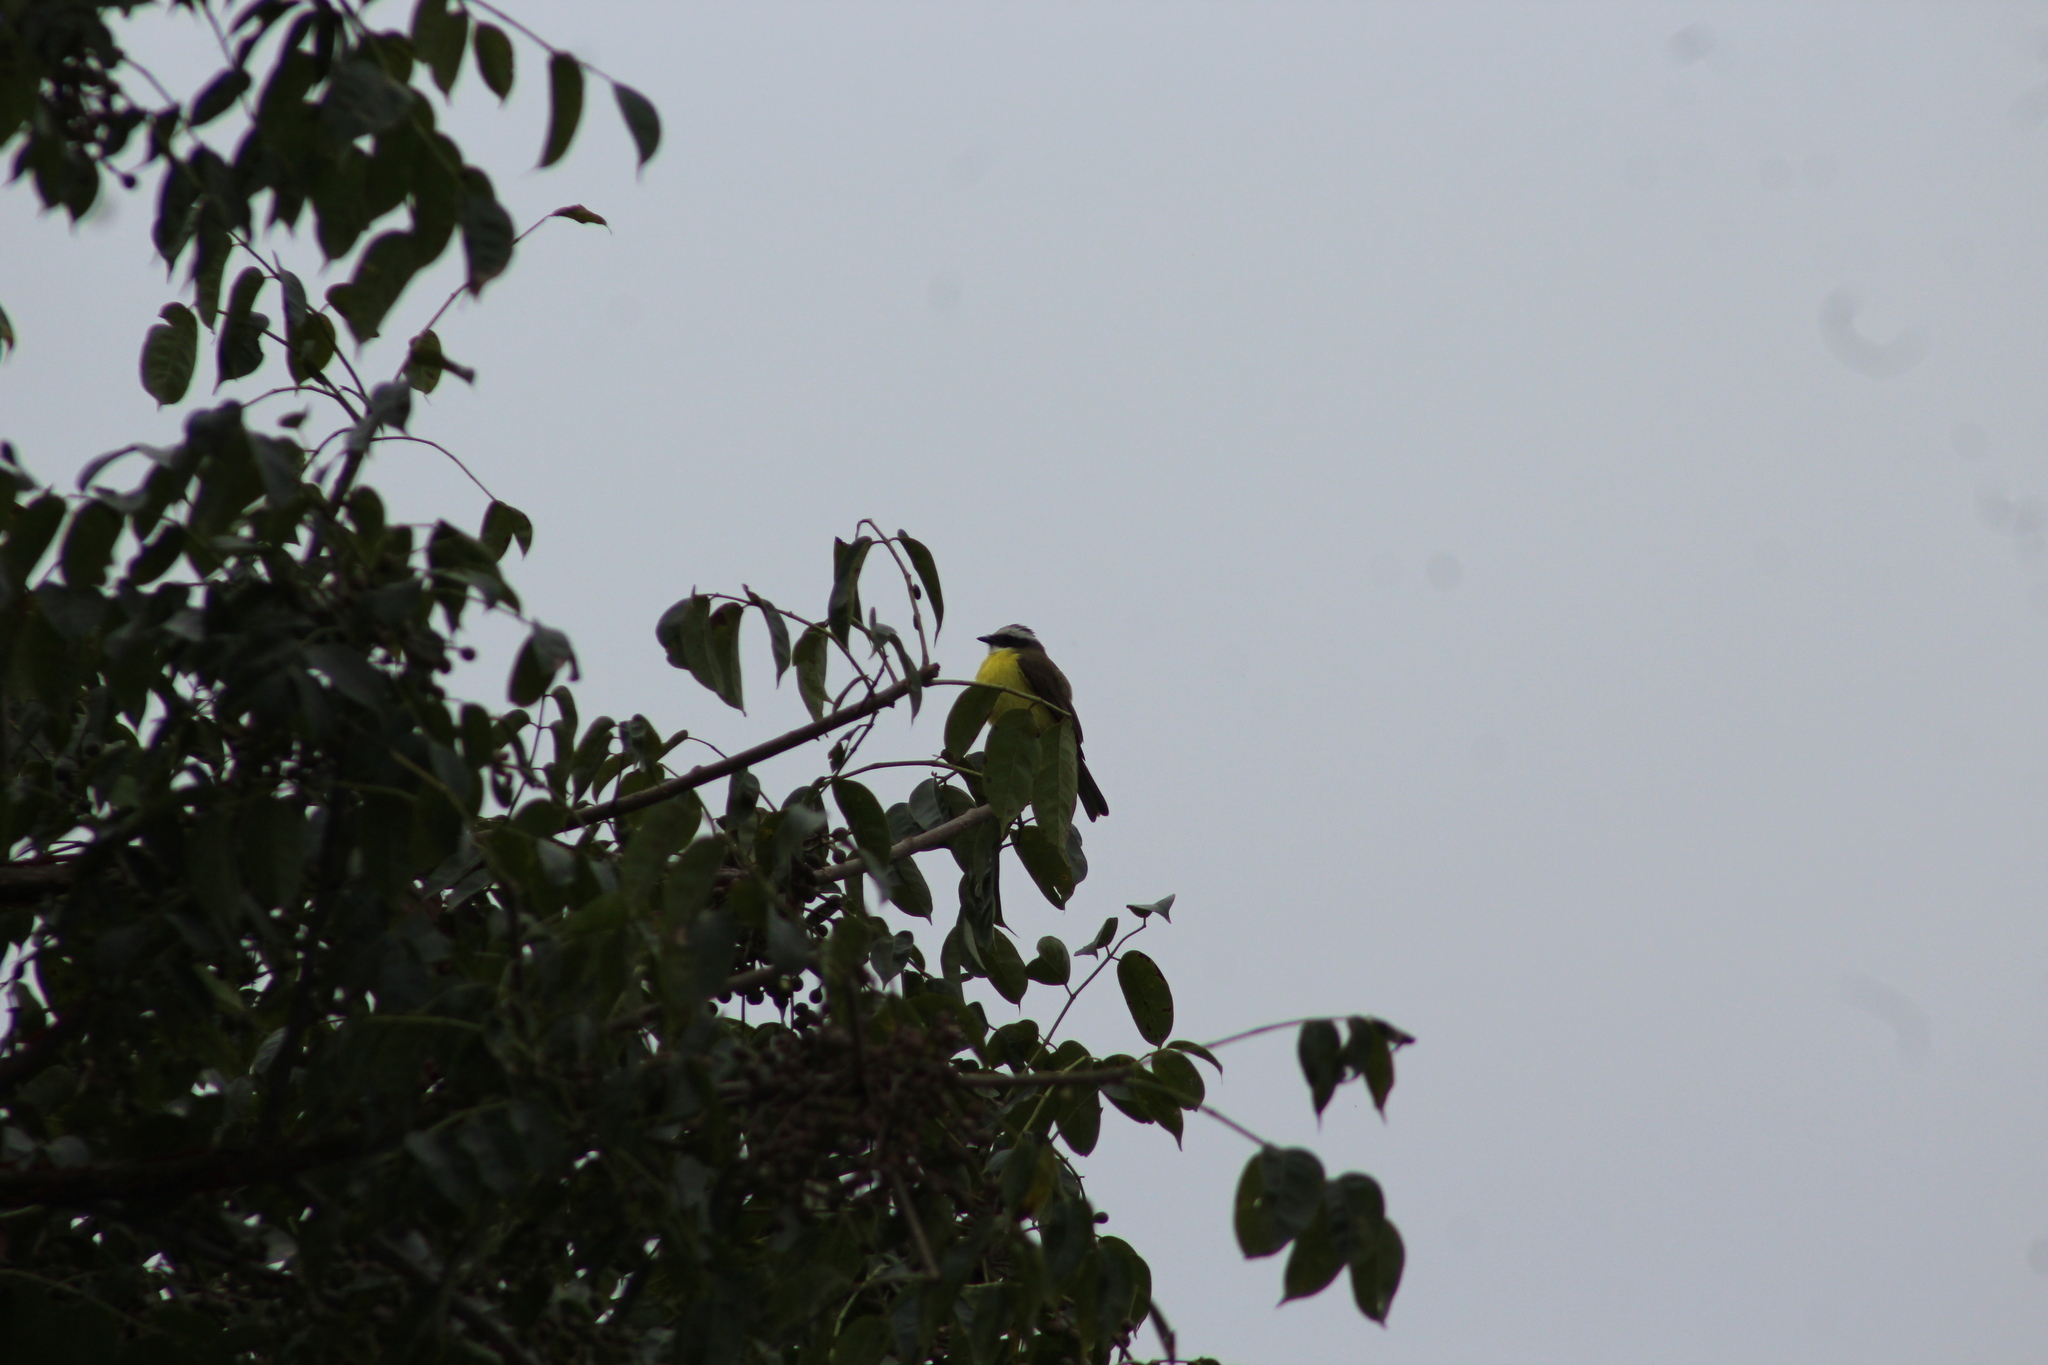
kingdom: Animalia
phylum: Chordata
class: Aves
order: Passeriformes
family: Tyrannidae
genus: Myiozetetes
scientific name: Myiozetetes similis
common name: Social flycatcher
